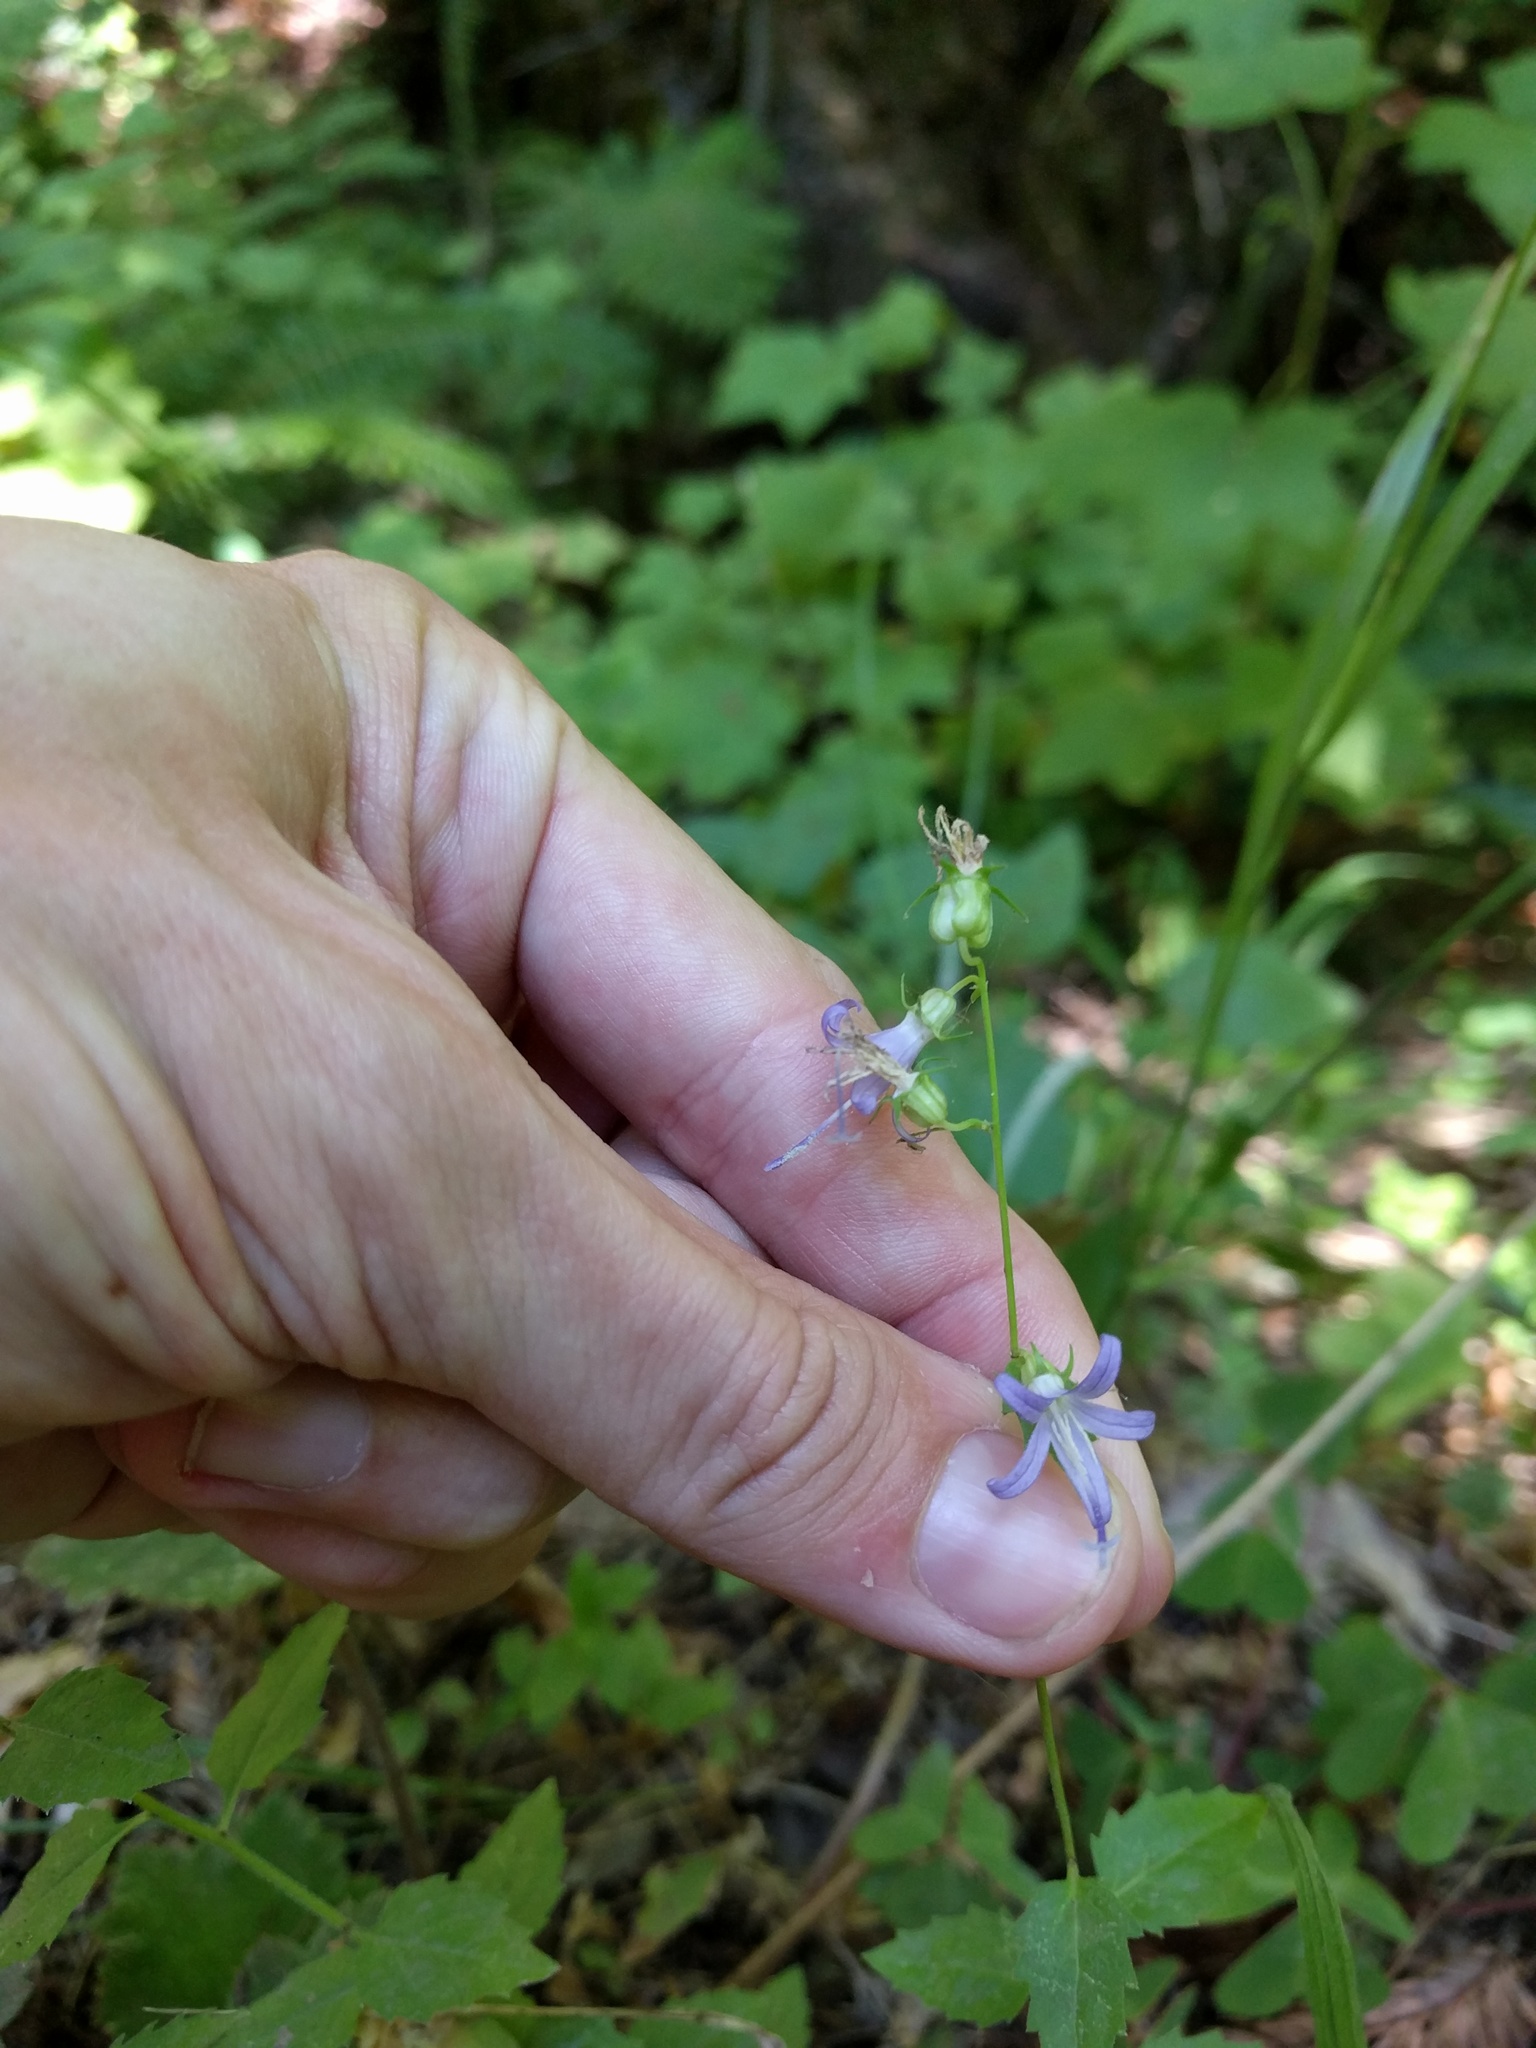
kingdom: Plantae
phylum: Tracheophyta
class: Magnoliopsida
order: Asterales
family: Campanulaceae
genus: Smithiastrum
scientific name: Smithiastrum prenanthoides
